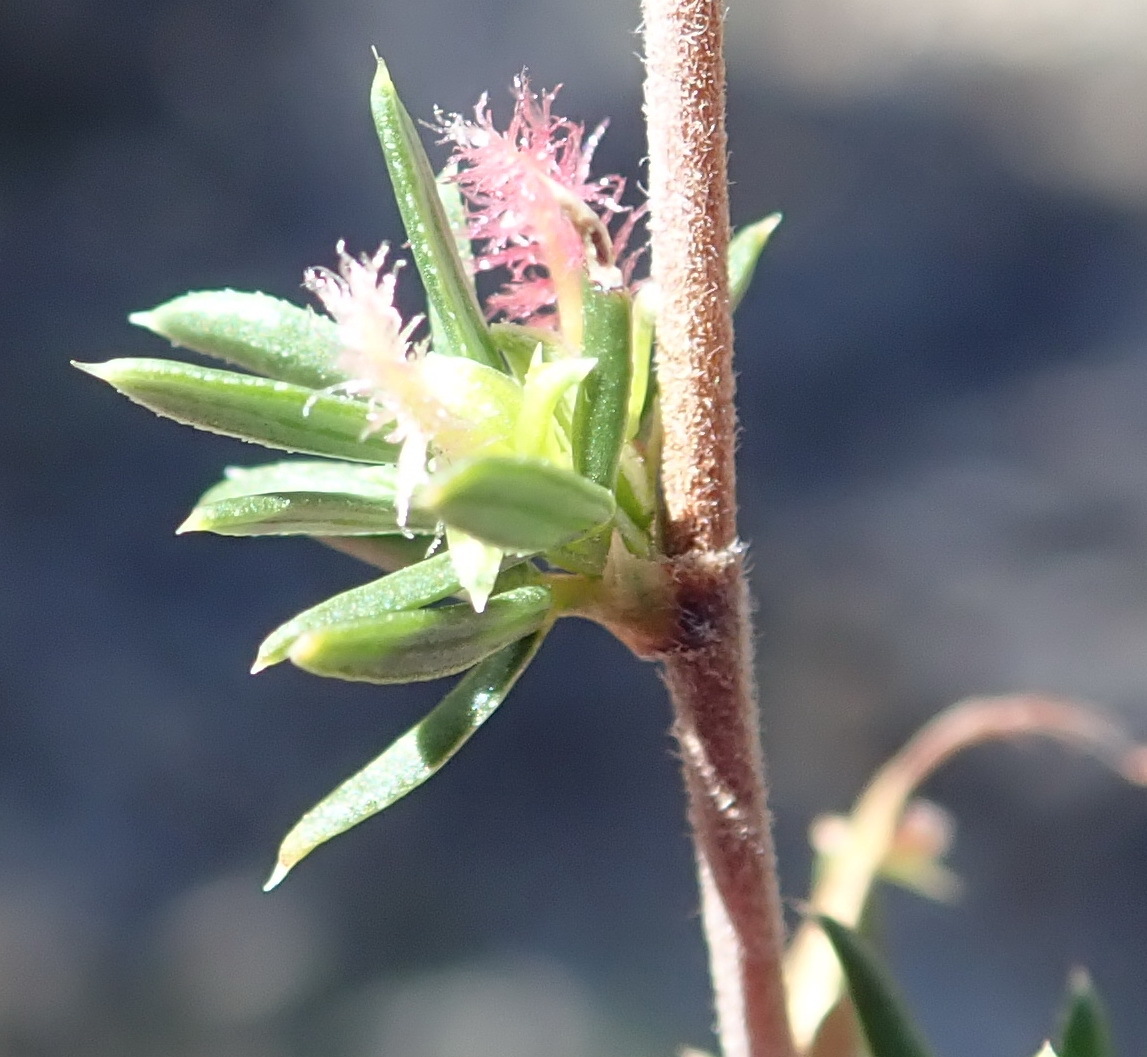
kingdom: Plantae
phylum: Tracheophyta
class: Magnoliopsida
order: Rosales
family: Rosaceae
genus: Cliffortia
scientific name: Cliffortia ramosissima
